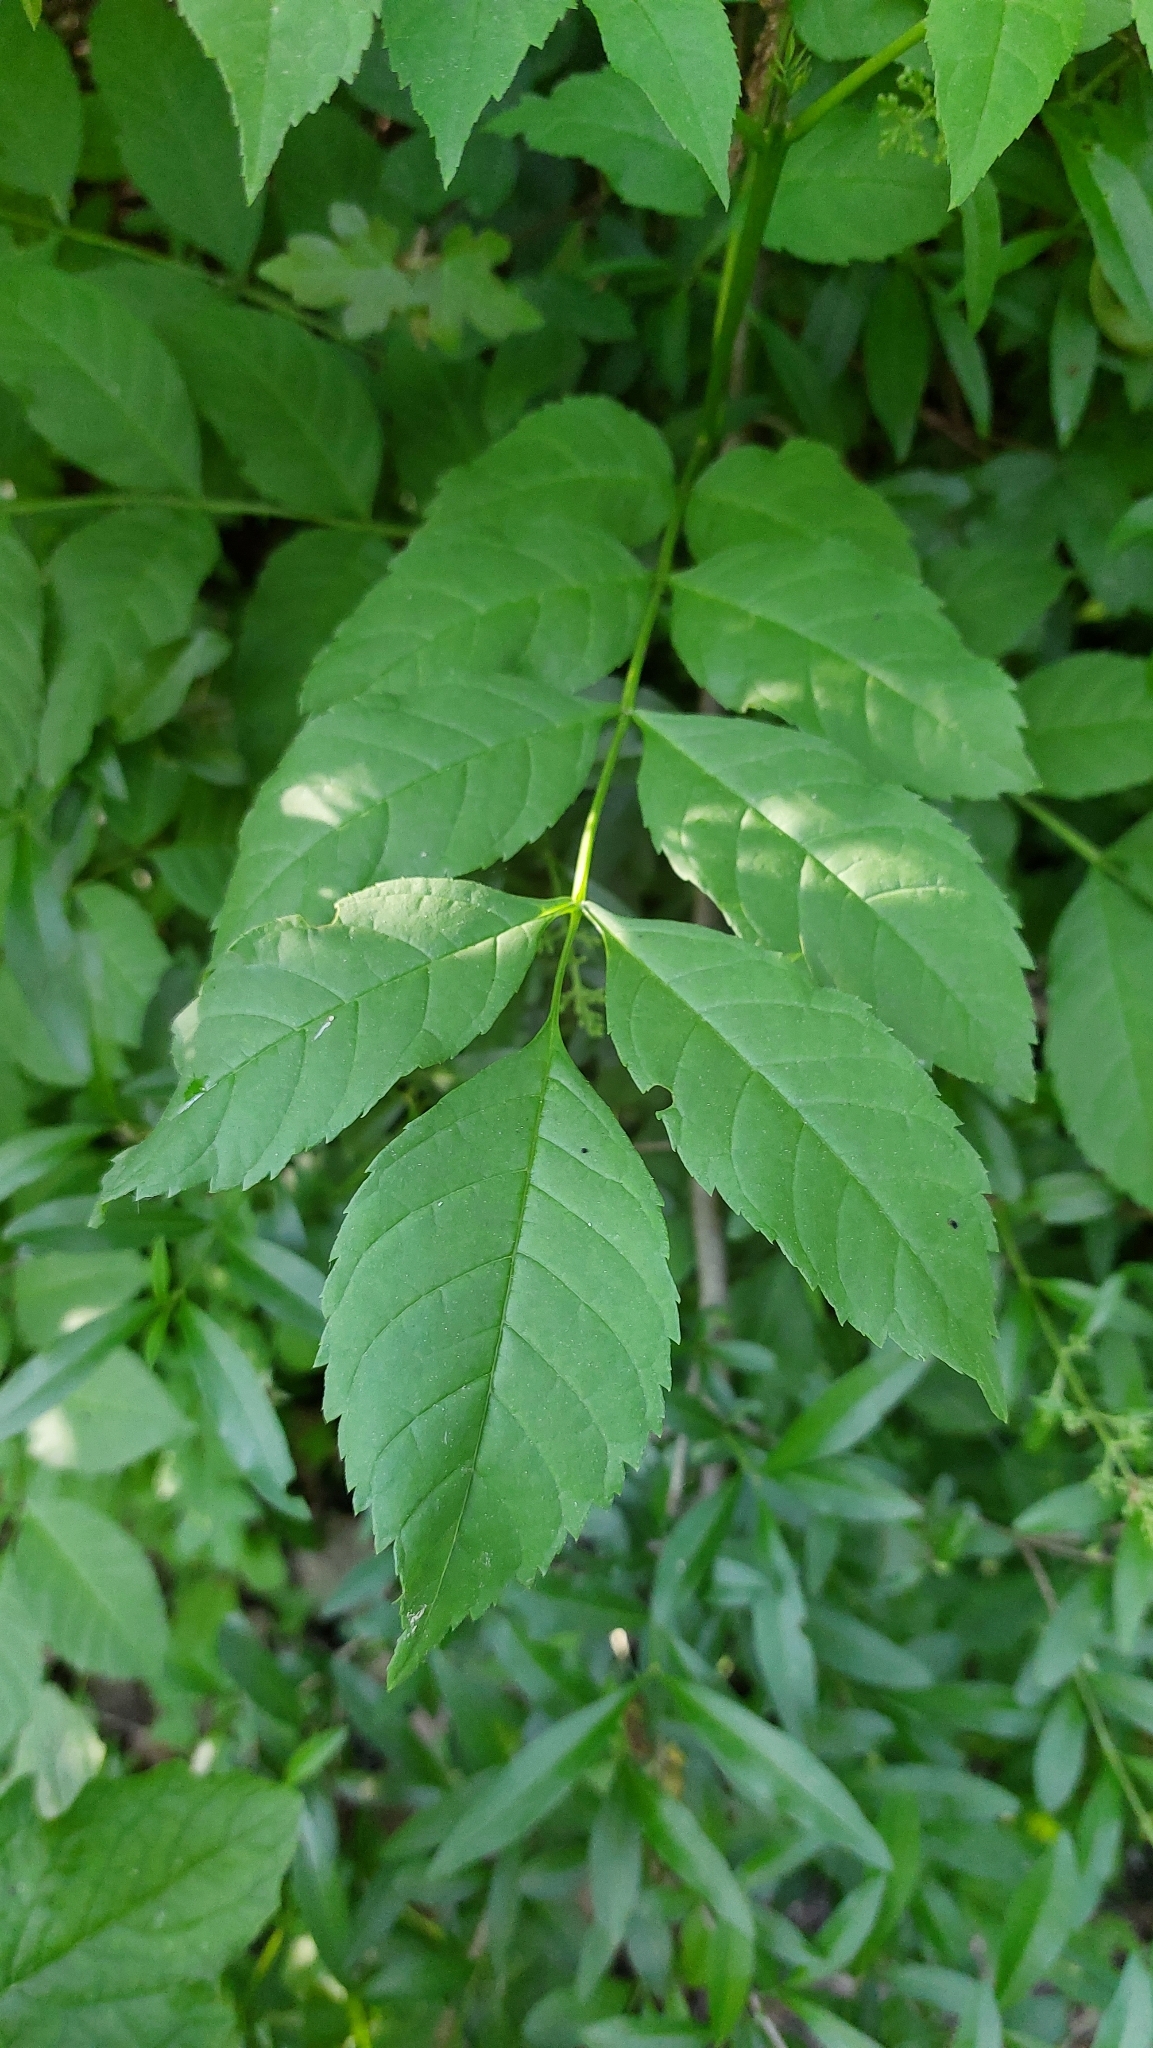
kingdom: Plantae
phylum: Tracheophyta
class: Magnoliopsida
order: Lamiales
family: Oleaceae
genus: Fraxinus
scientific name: Fraxinus excelsior
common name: European ash
